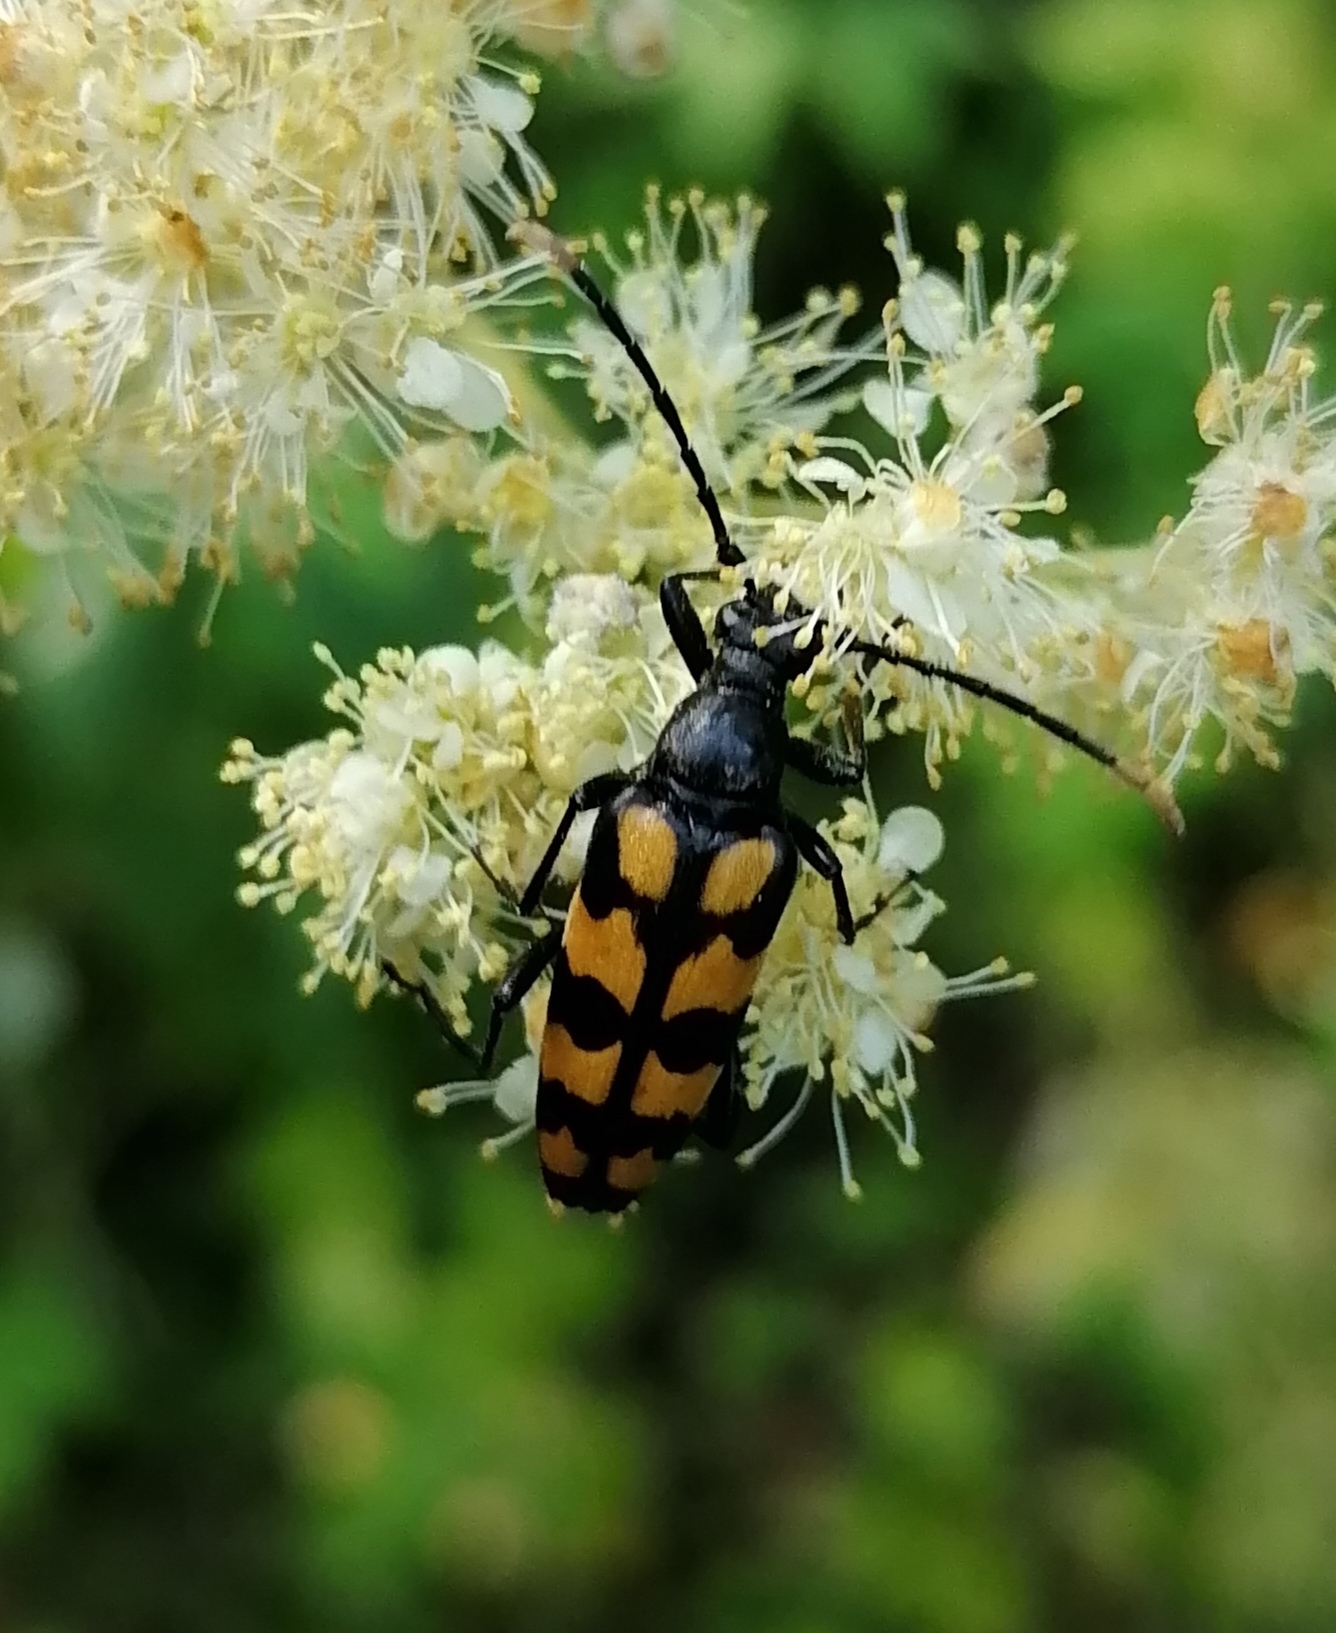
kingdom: Animalia
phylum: Arthropoda
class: Insecta
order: Coleoptera
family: Cerambycidae
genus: Leptura
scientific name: Leptura quadrifasciata
